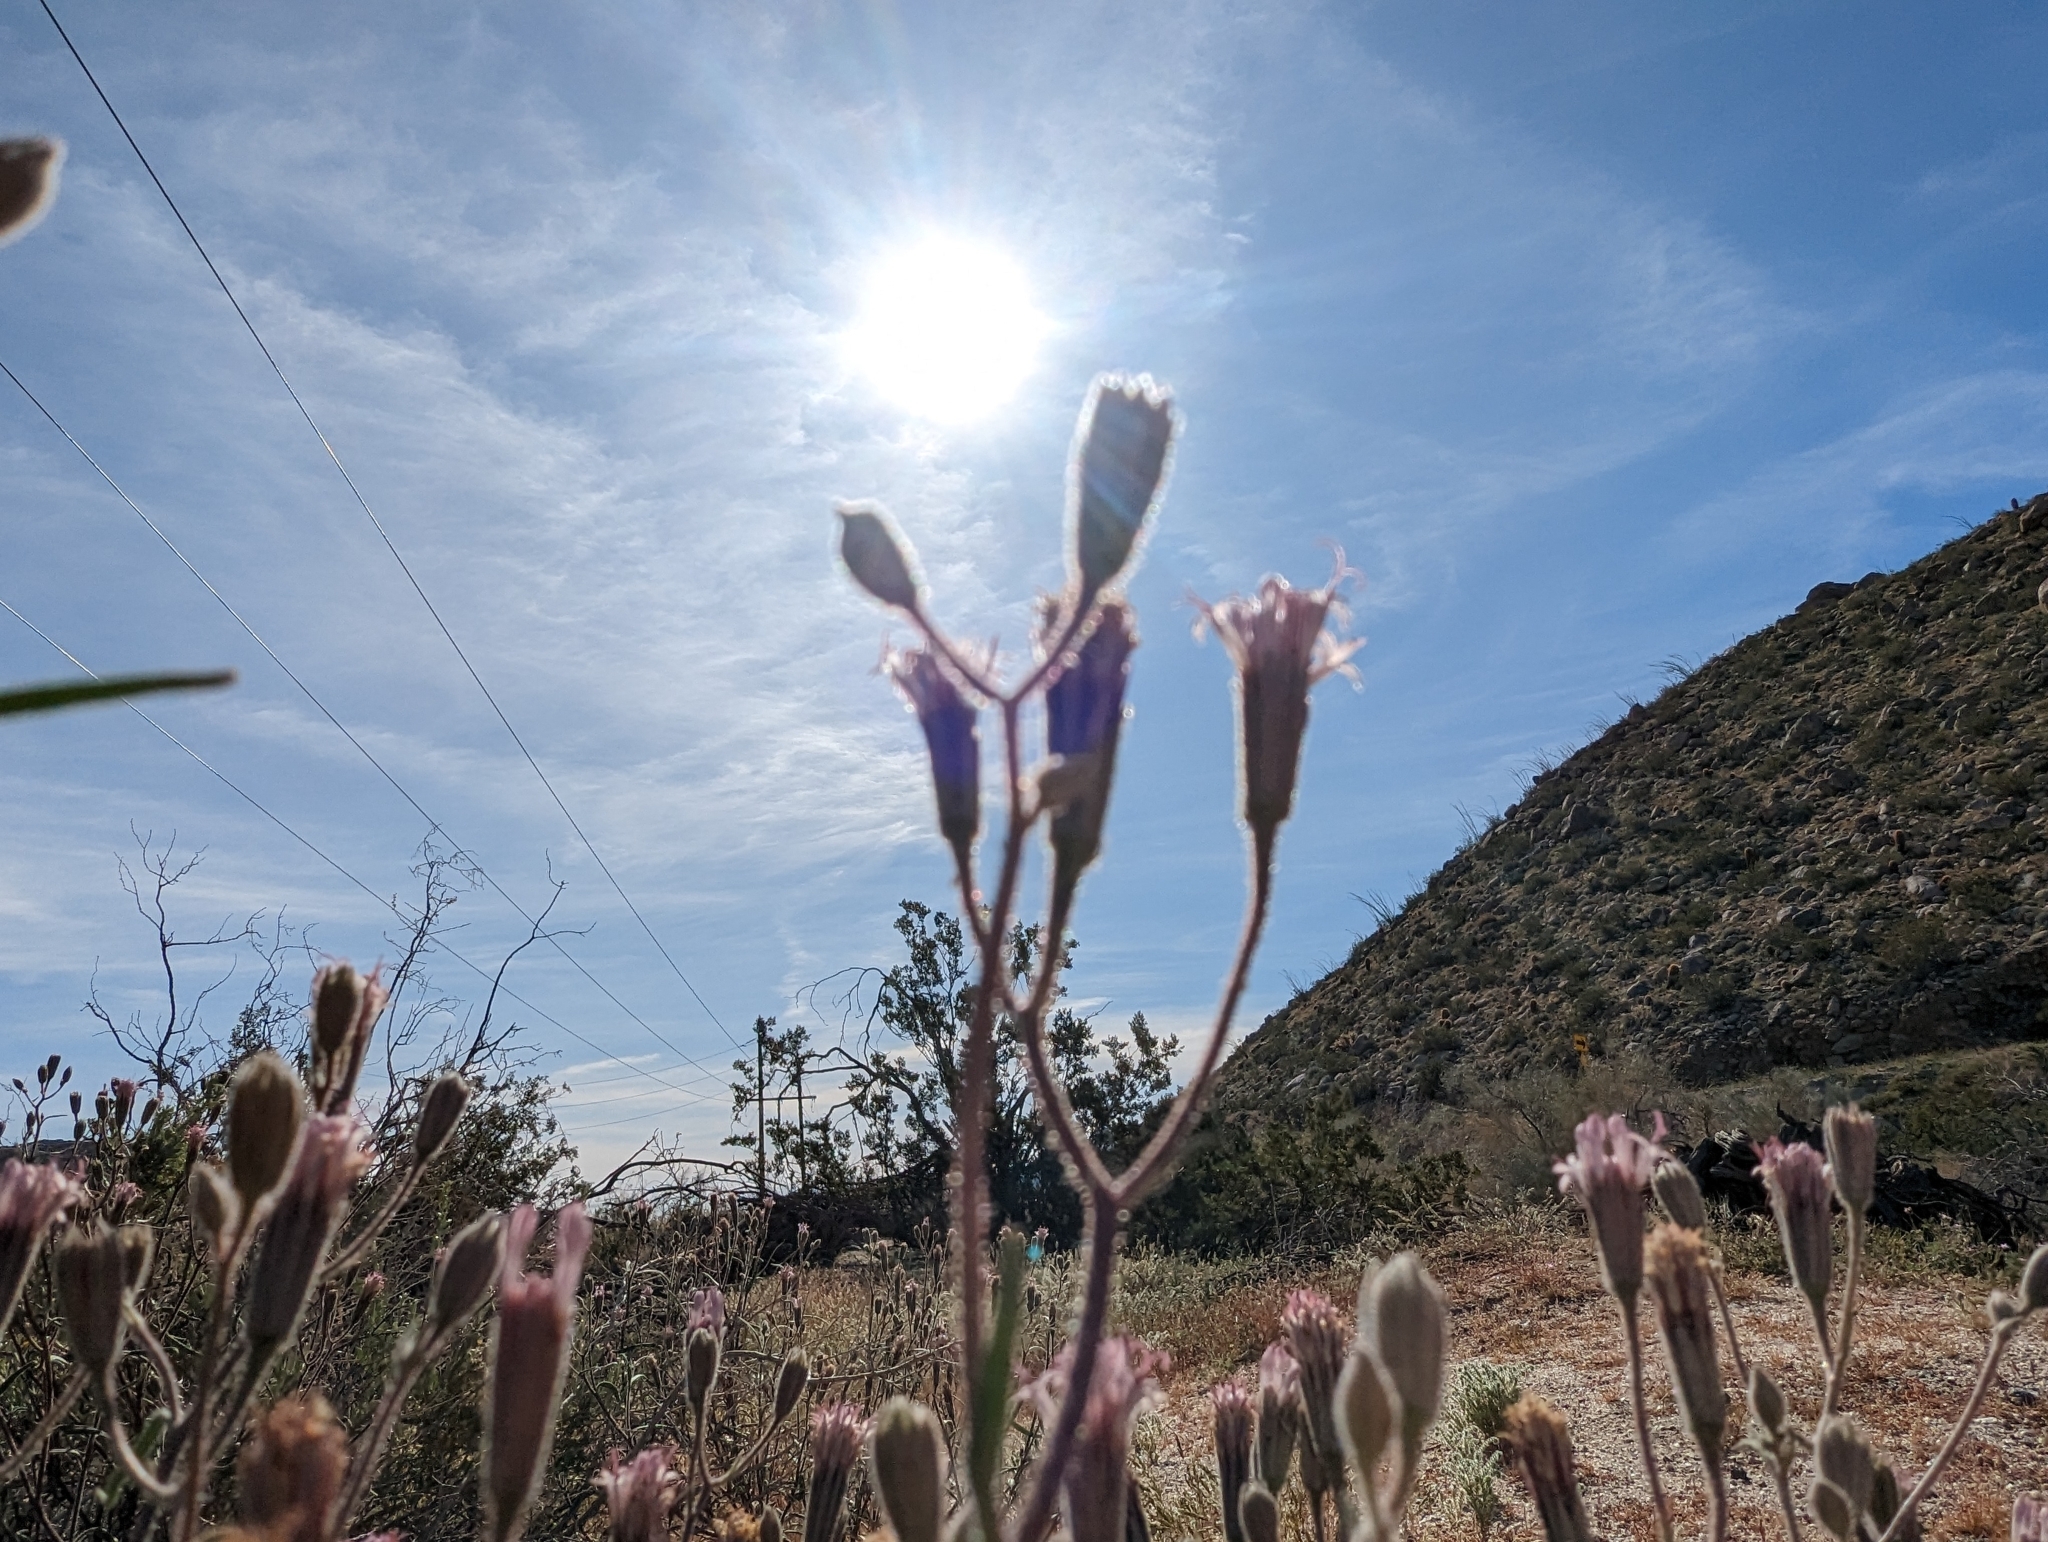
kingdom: Plantae
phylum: Tracheophyta
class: Magnoliopsida
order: Asterales
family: Asteraceae
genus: Palafoxia
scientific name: Palafoxia arida
